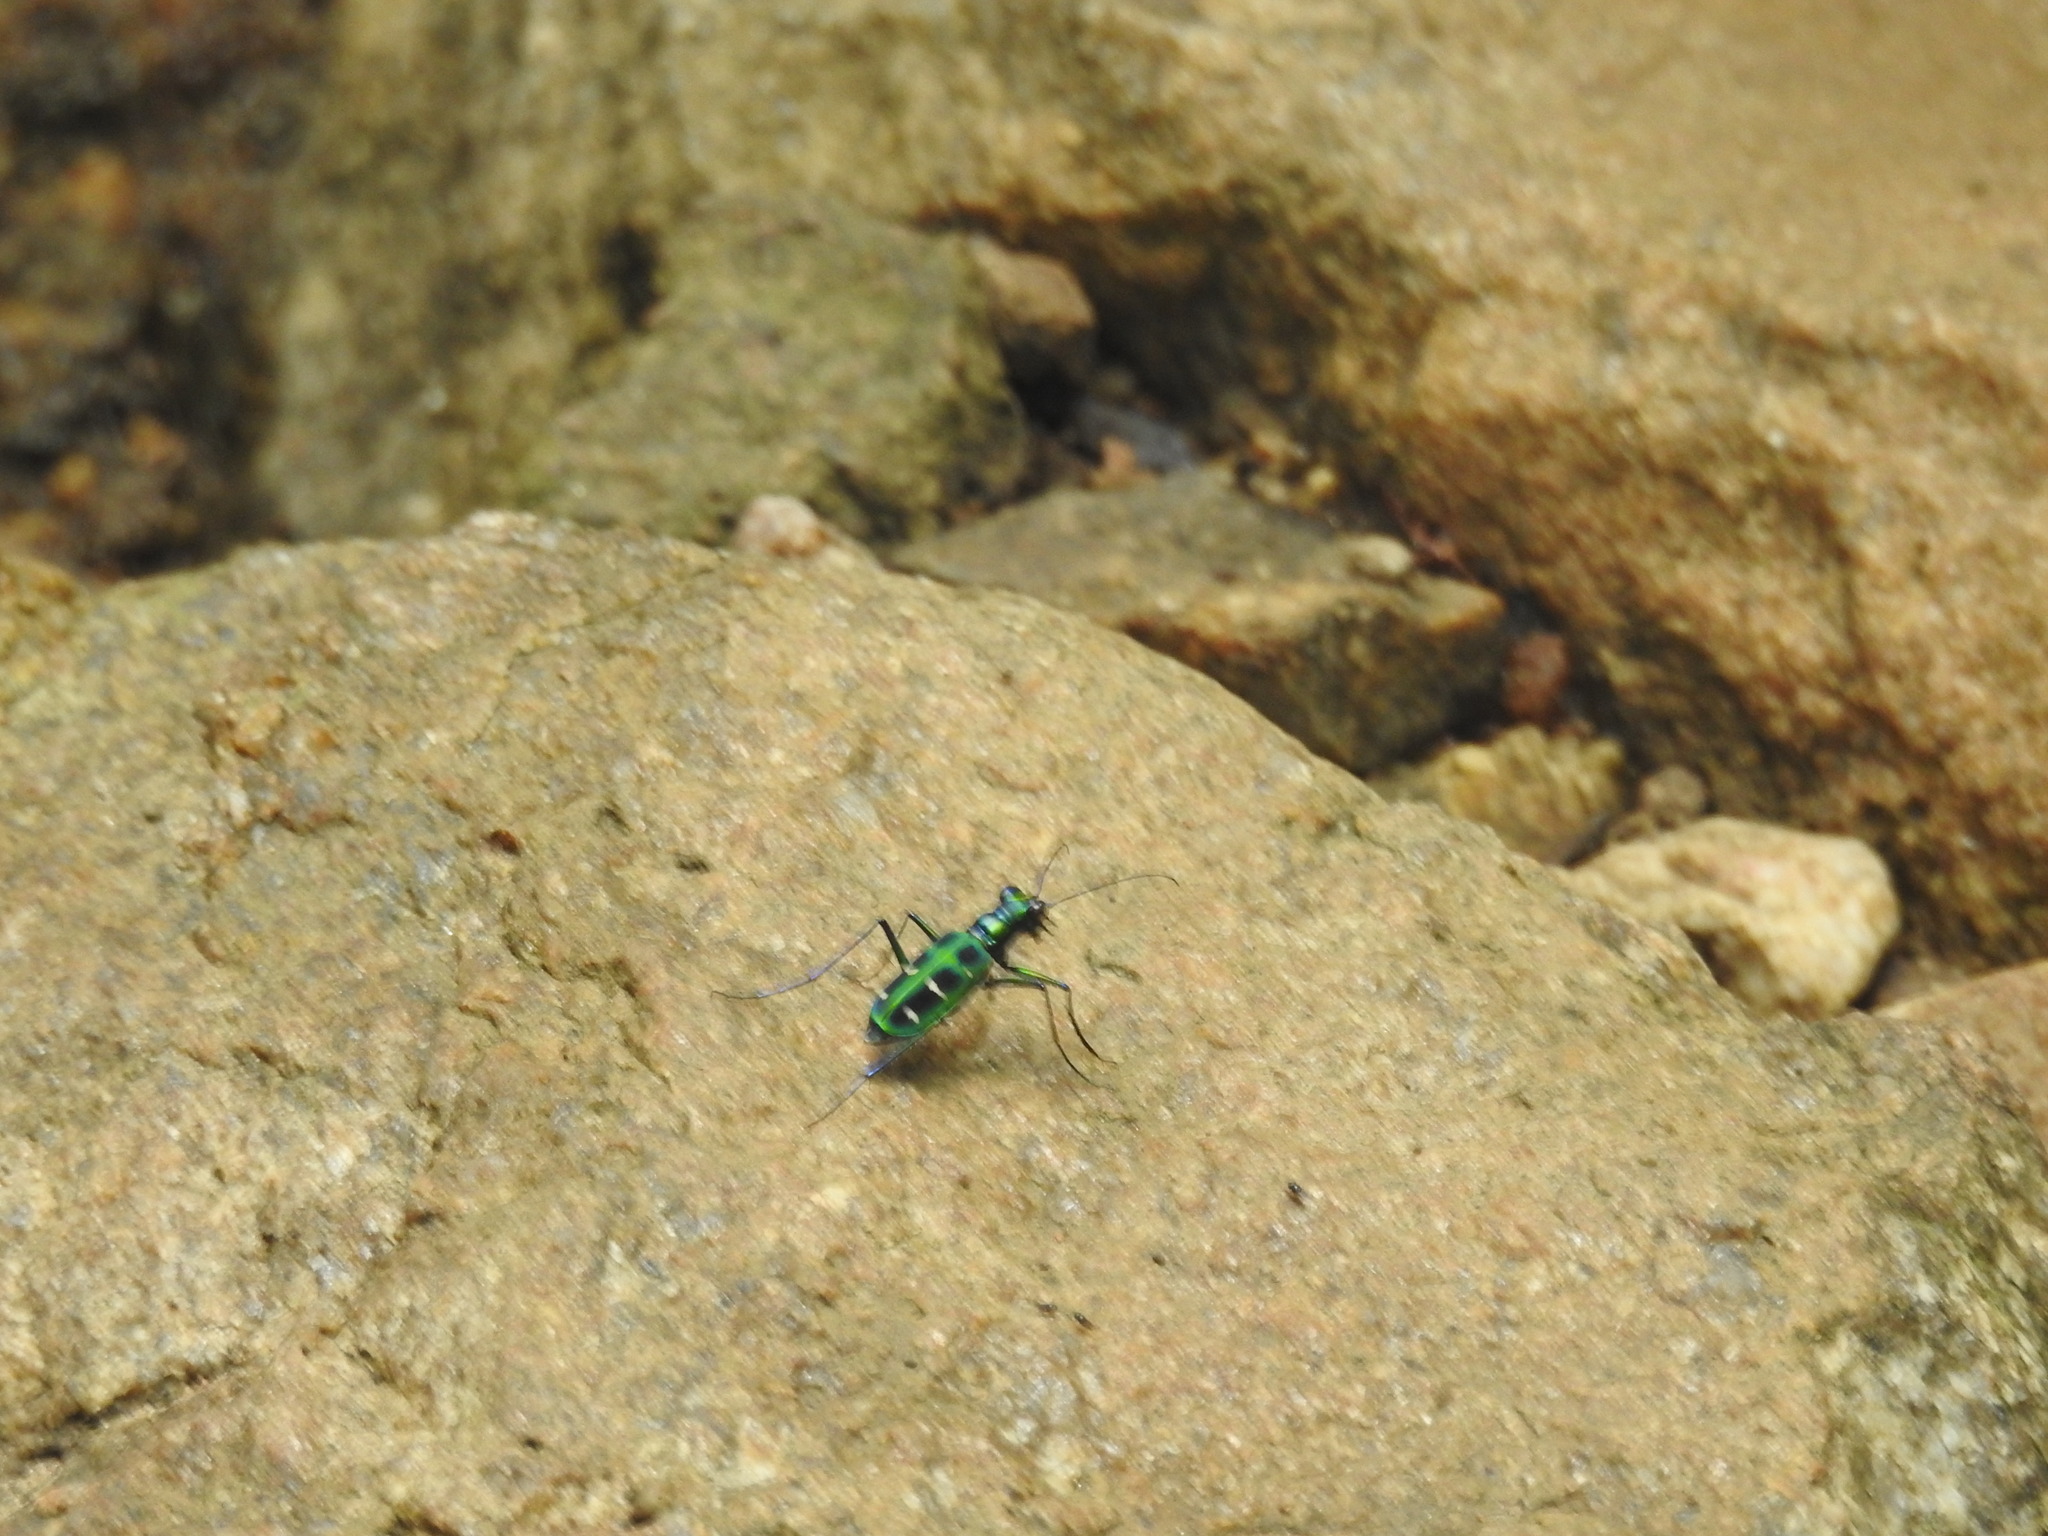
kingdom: Animalia
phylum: Arthropoda
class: Insecta
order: Coleoptera
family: Carabidae
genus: Cicindela
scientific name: Cicindela barmanica
